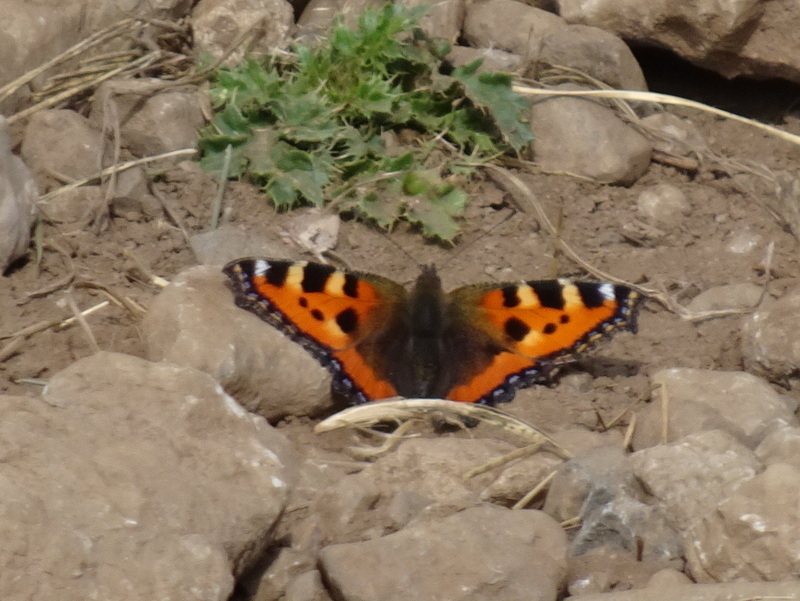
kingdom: Animalia
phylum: Arthropoda
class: Insecta
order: Lepidoptera
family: Nymphalidae
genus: Aglais
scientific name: Aglais urticae
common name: Small tortoiseshell
